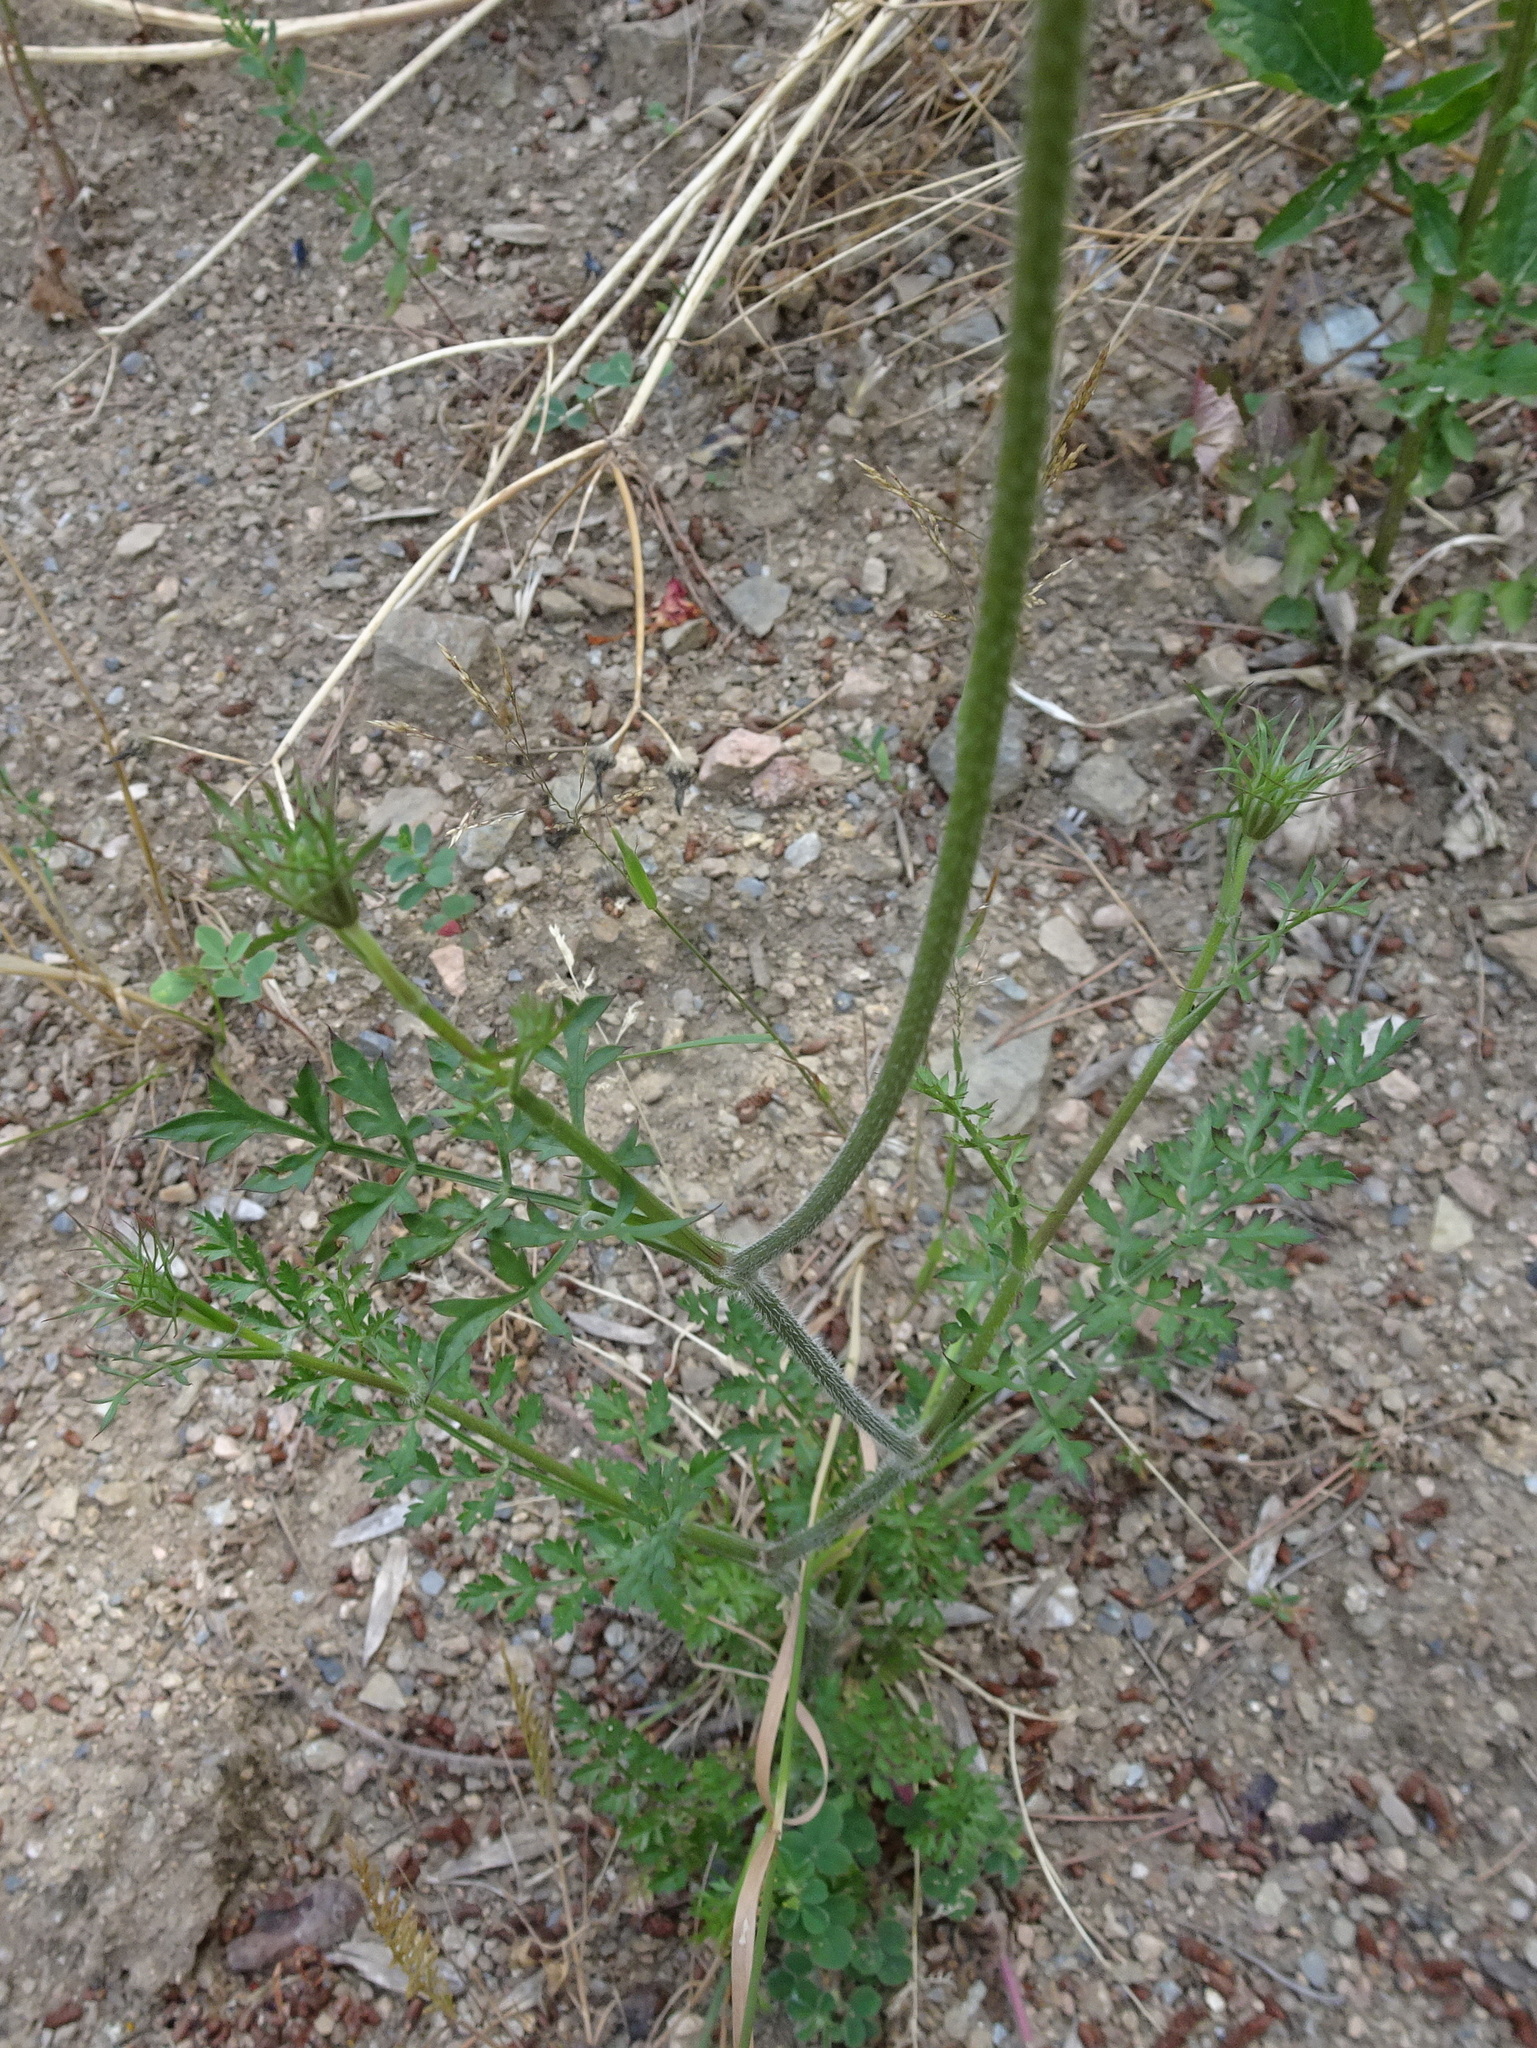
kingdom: Plantae
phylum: Tracheophyta
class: Magnoliopsida
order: Apiales
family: Apiaceae
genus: Daucus
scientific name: Daucus carota
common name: Wild carrot
